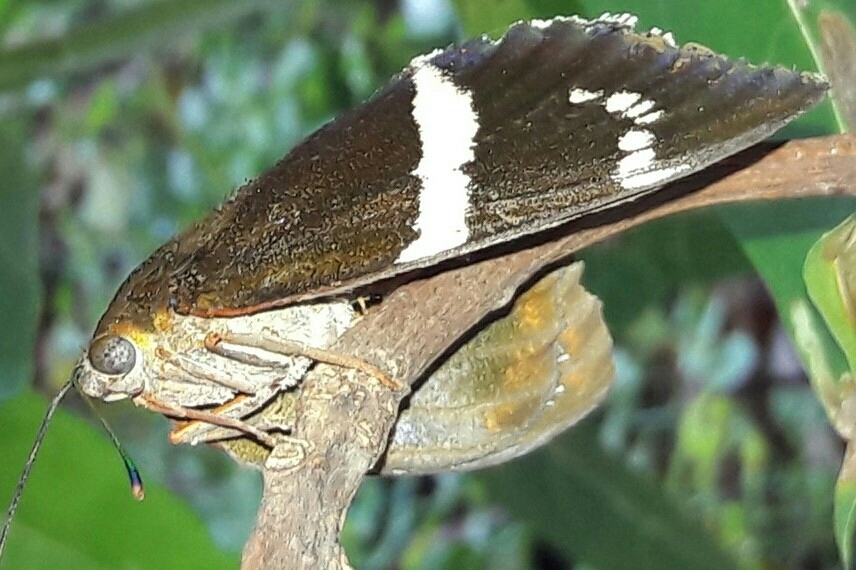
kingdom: Animalia
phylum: Arthropoda
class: Insecta
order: Lepidoptera
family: Castniidae
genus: Castnia
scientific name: Castnia licus
